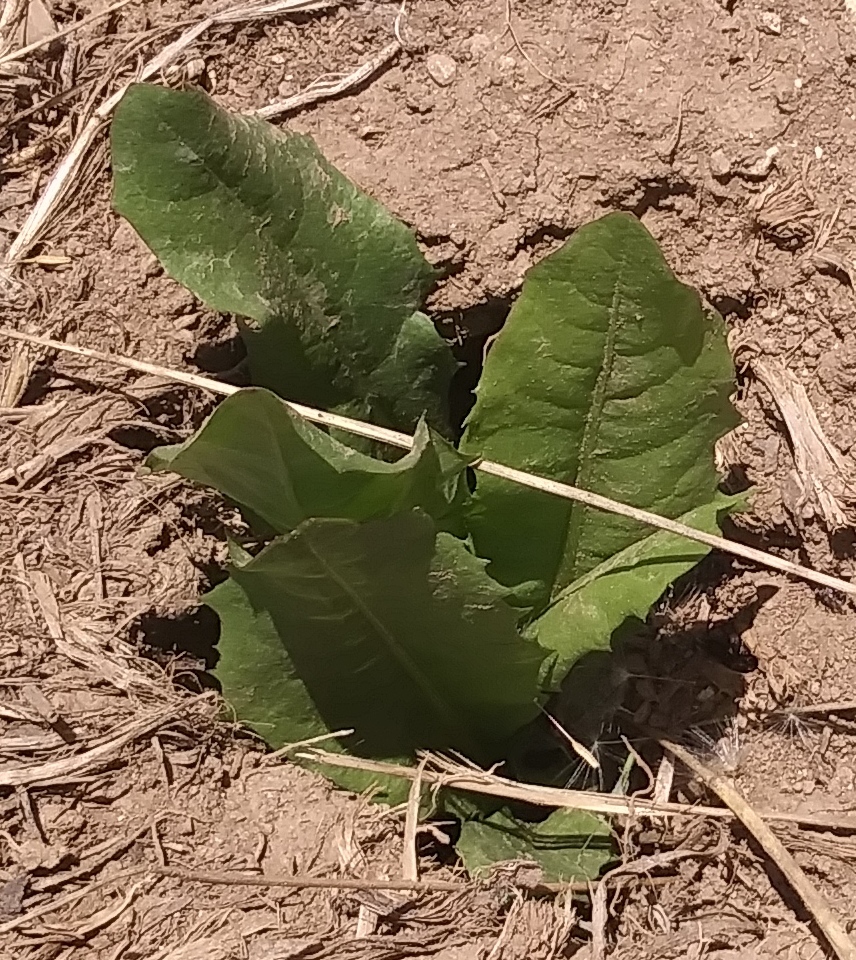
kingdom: Plantae
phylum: Tracheophyta
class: Magnoliopsida
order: Asterales
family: Asteraceae
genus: Taraxacum
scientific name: Taraxacum officinale
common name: Common dandelion
